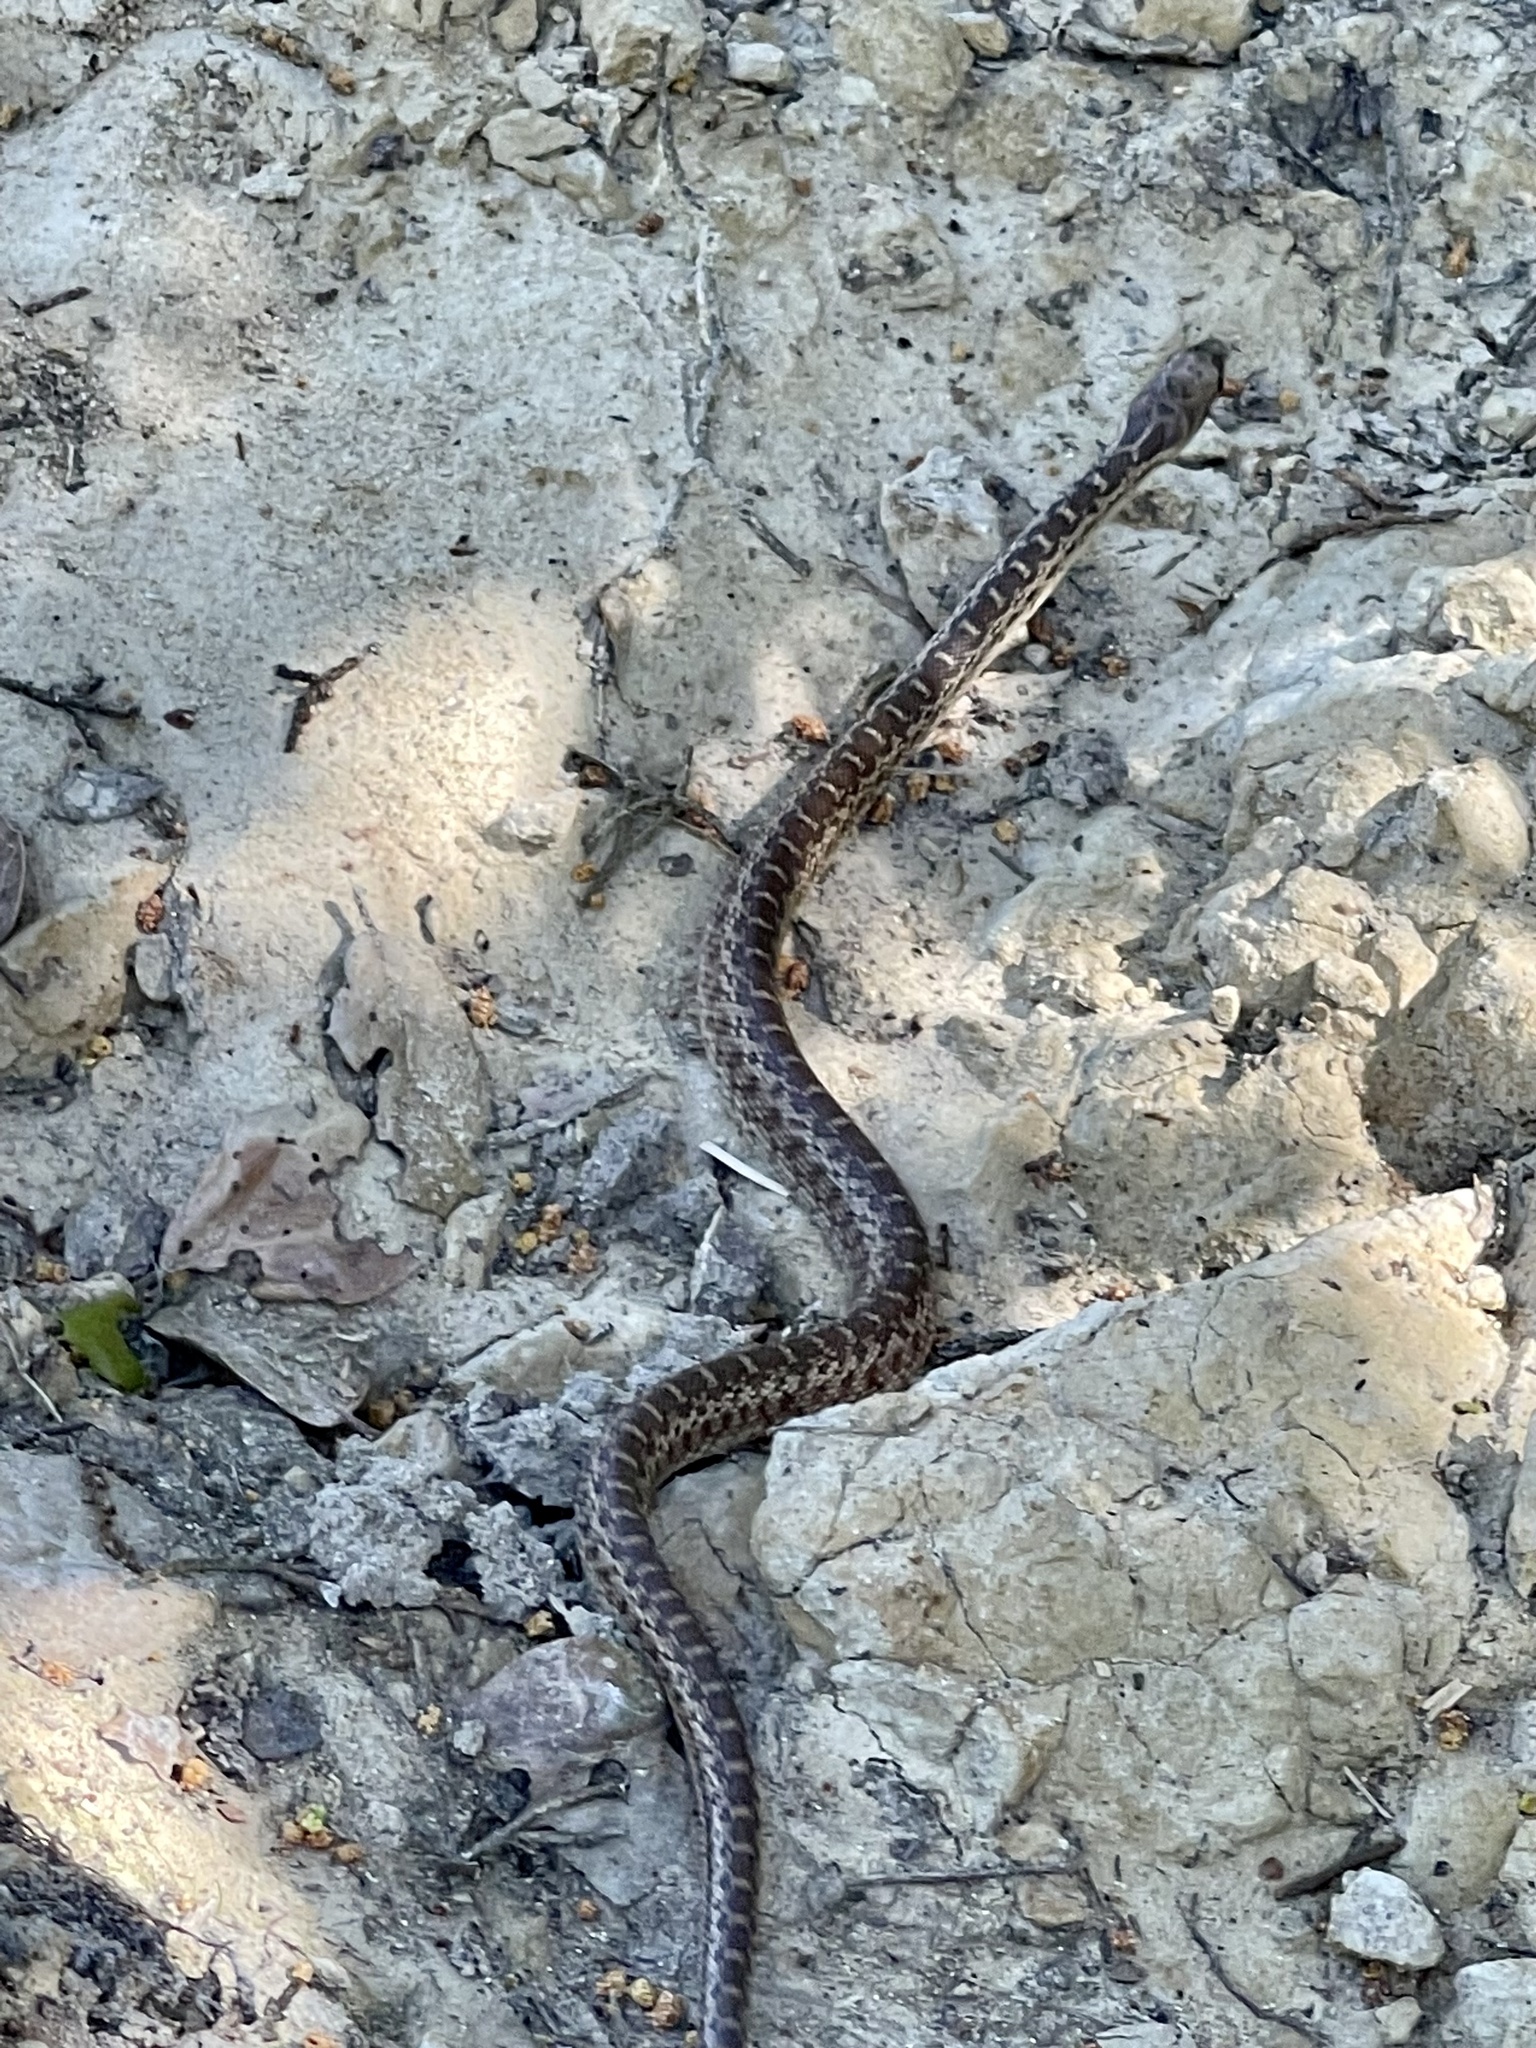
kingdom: Animalia
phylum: Chordata
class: Squamata
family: Colubridae
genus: Pituophis
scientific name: Pituophis catenifer
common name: Gopher snake
